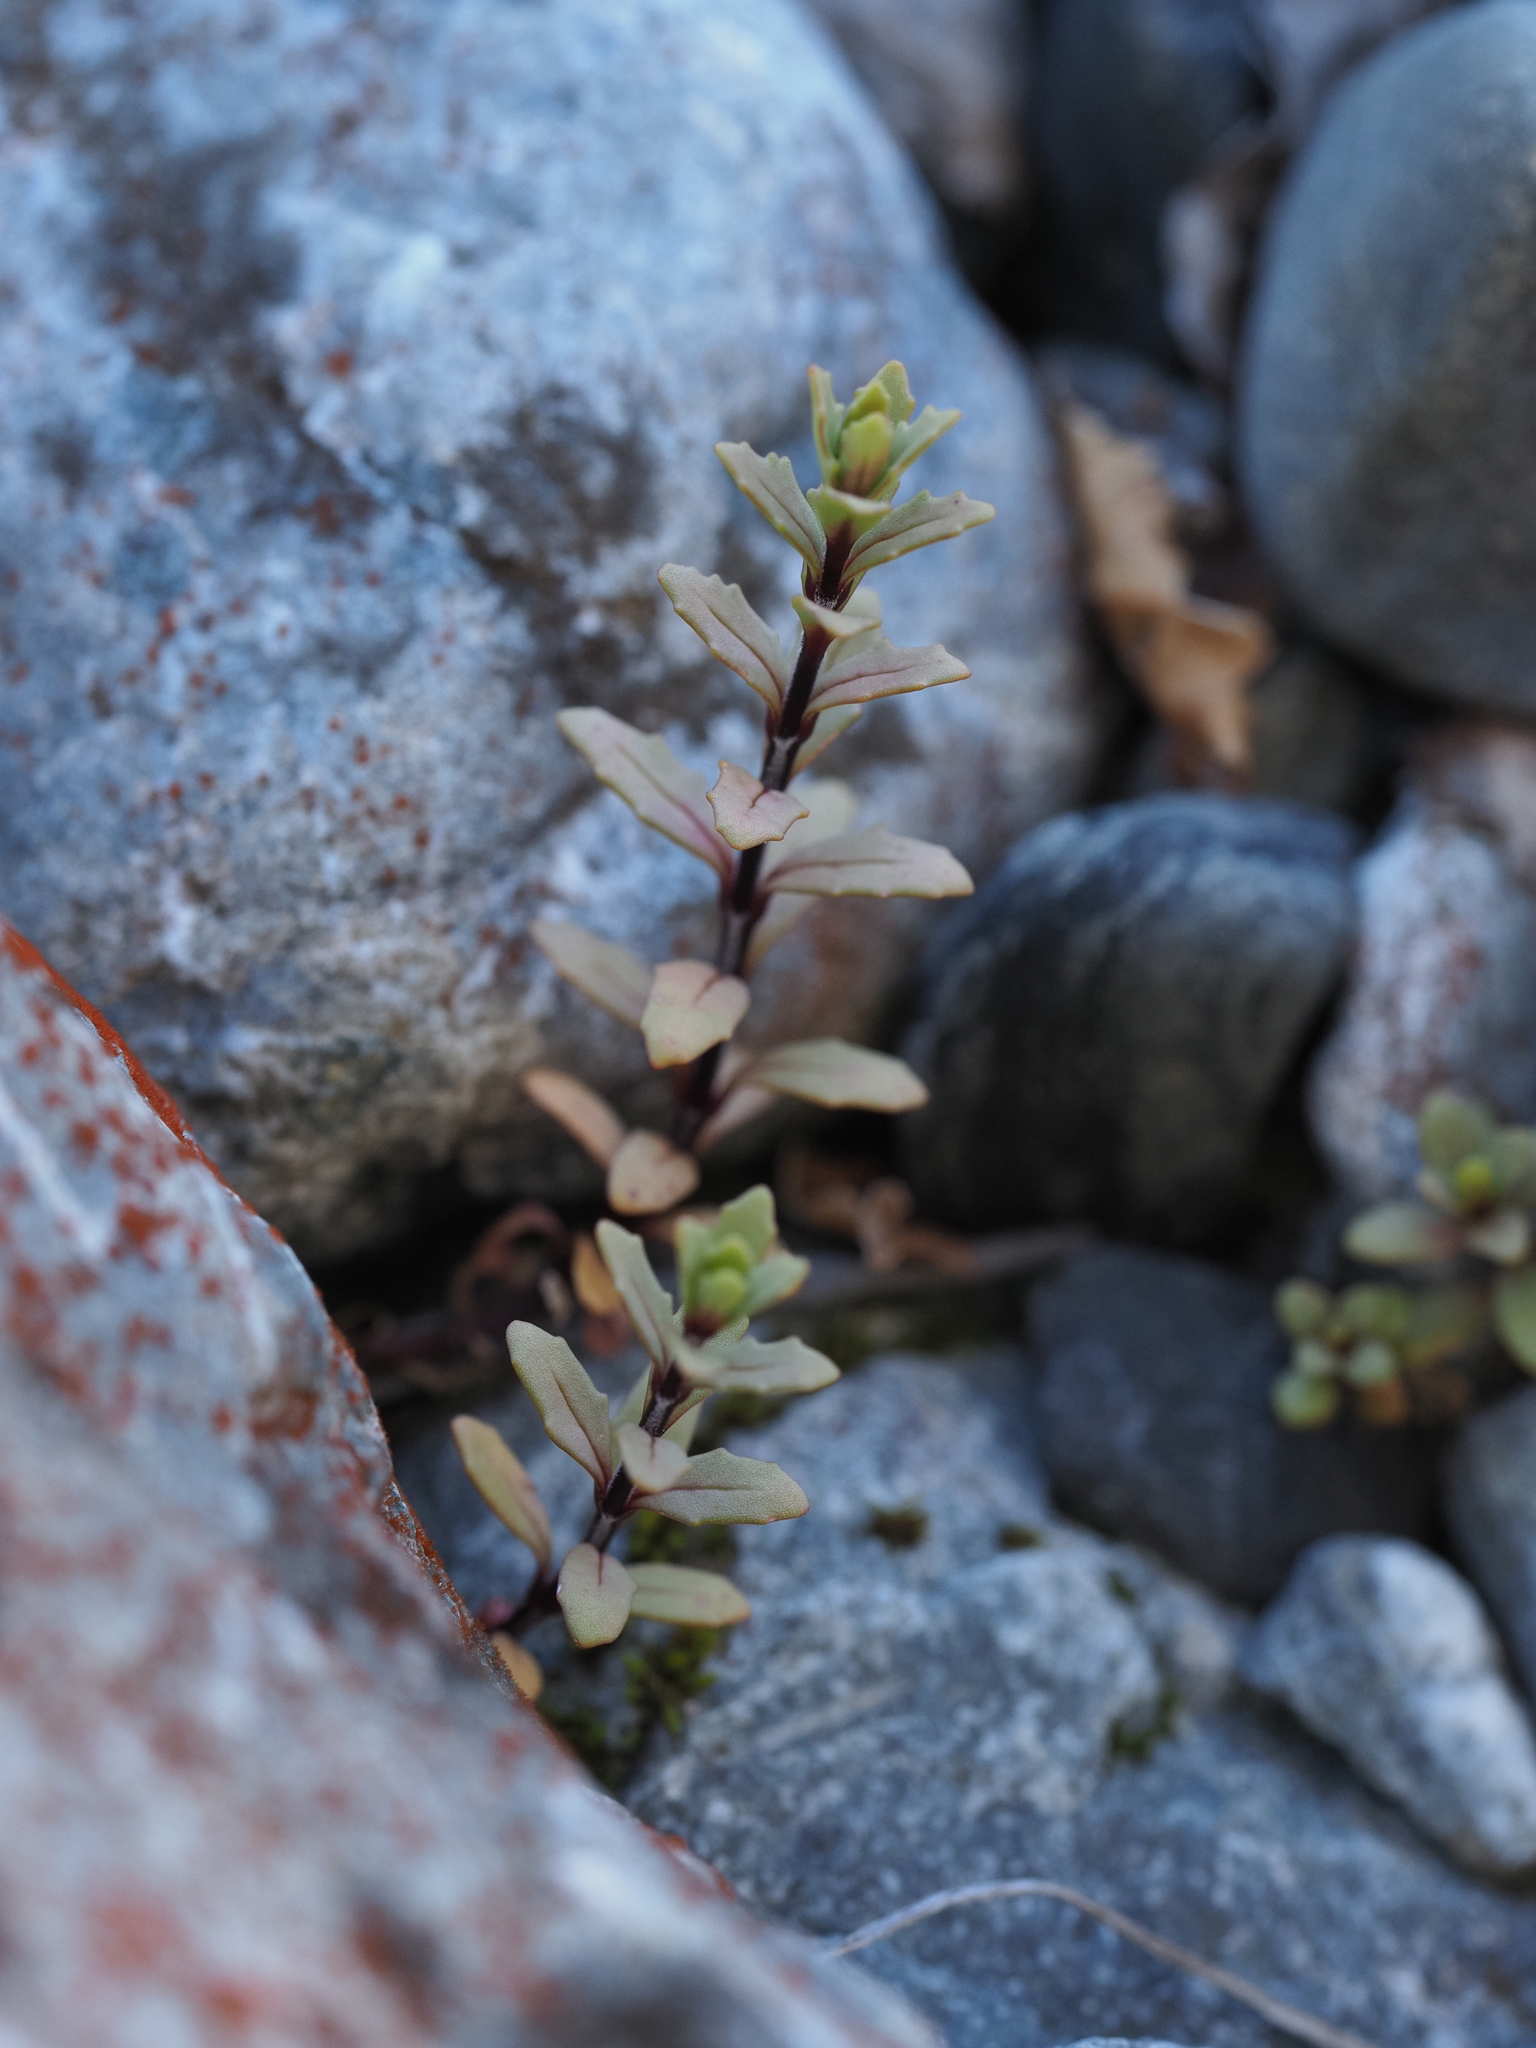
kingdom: Plantae
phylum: Tracheophyta
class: Magnoliopsida
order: Myrtales
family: Onagraceae
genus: Epilobium
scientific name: Epilobium melanocaulon
